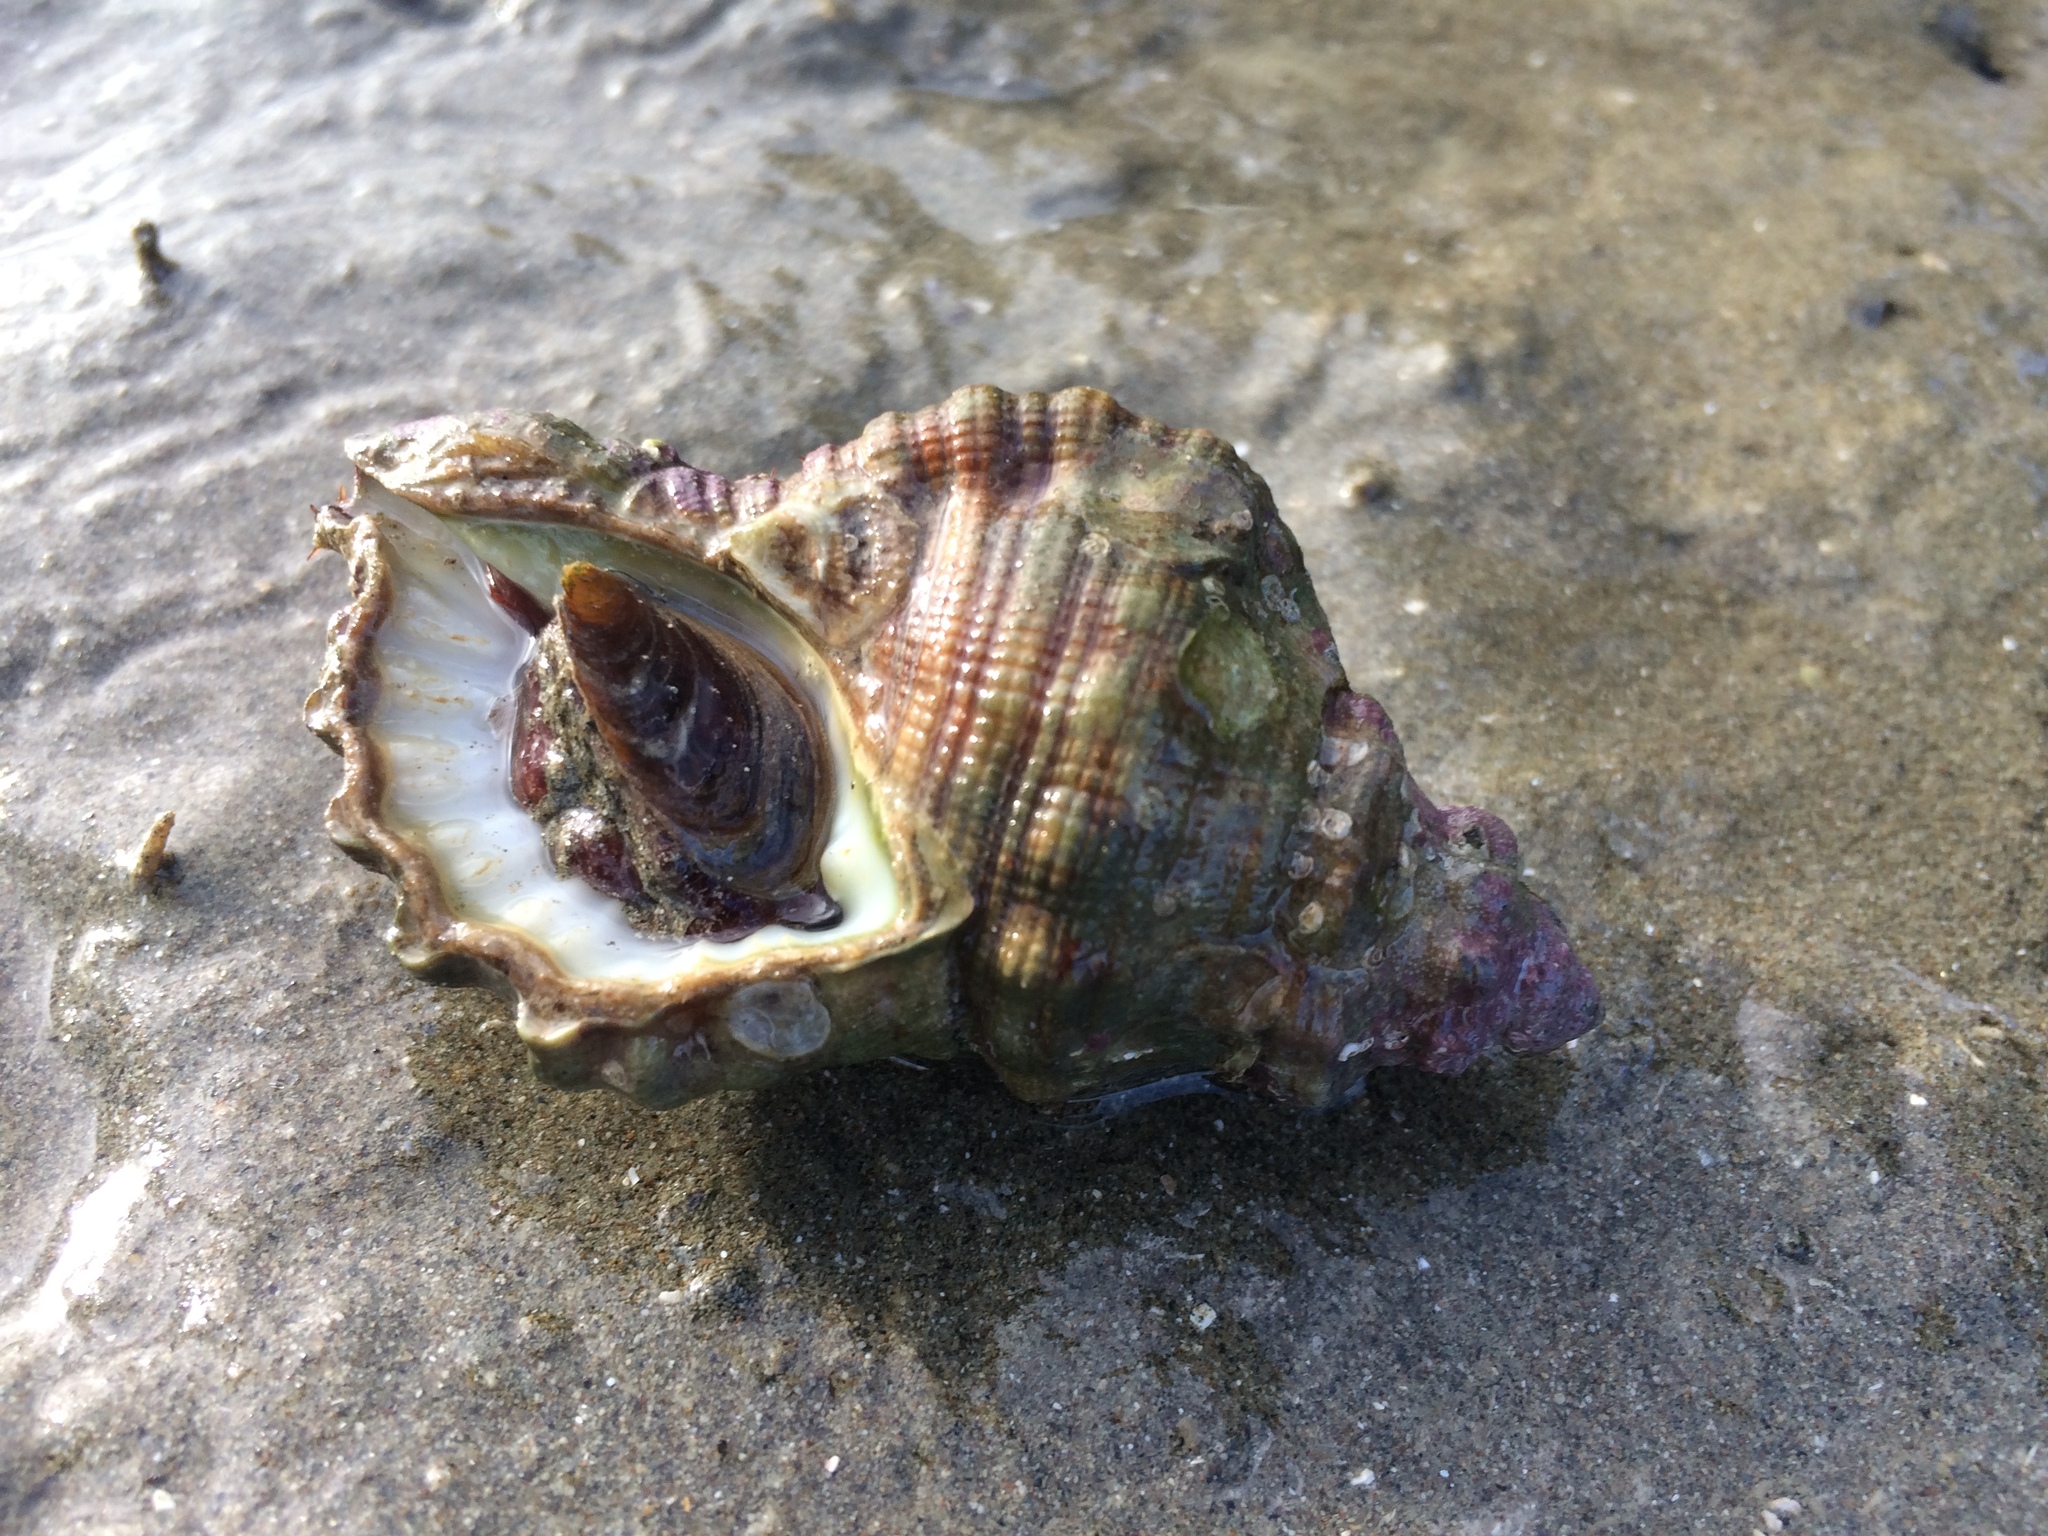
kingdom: Animalia
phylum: Mollusca
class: Gastropoda
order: Littorinimorpha
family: Cymatiidae
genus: Cabestana
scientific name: Cabestana spengleri
